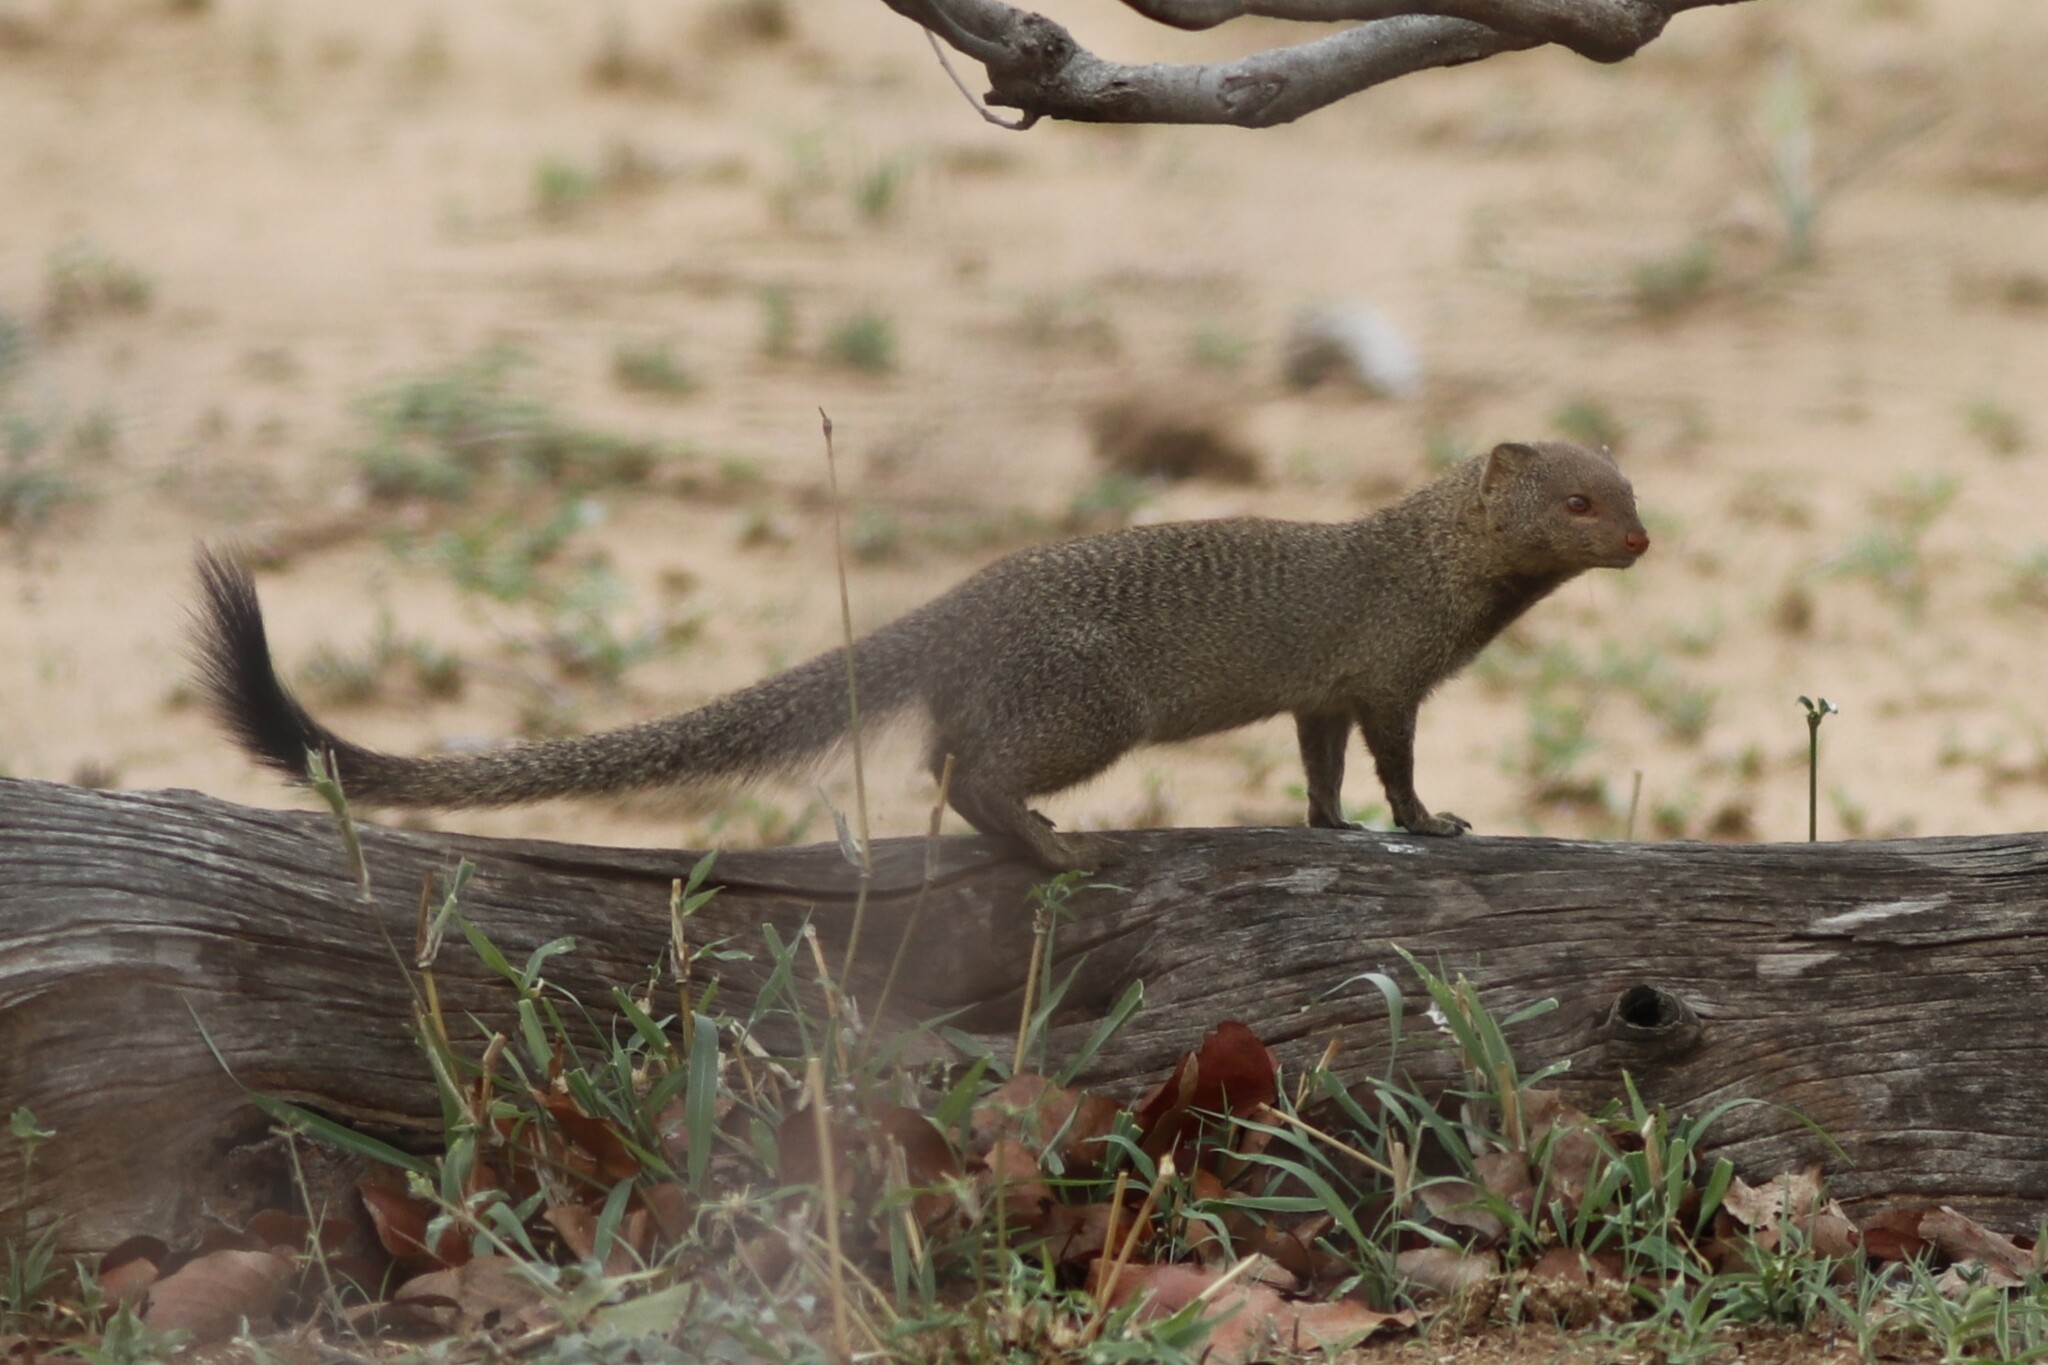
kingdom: Animalia
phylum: Chordata
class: Mammalia
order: Carnivora
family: Herpestidae
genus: Galerella
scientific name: Galerella sanguinea
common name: Slender mongoose
